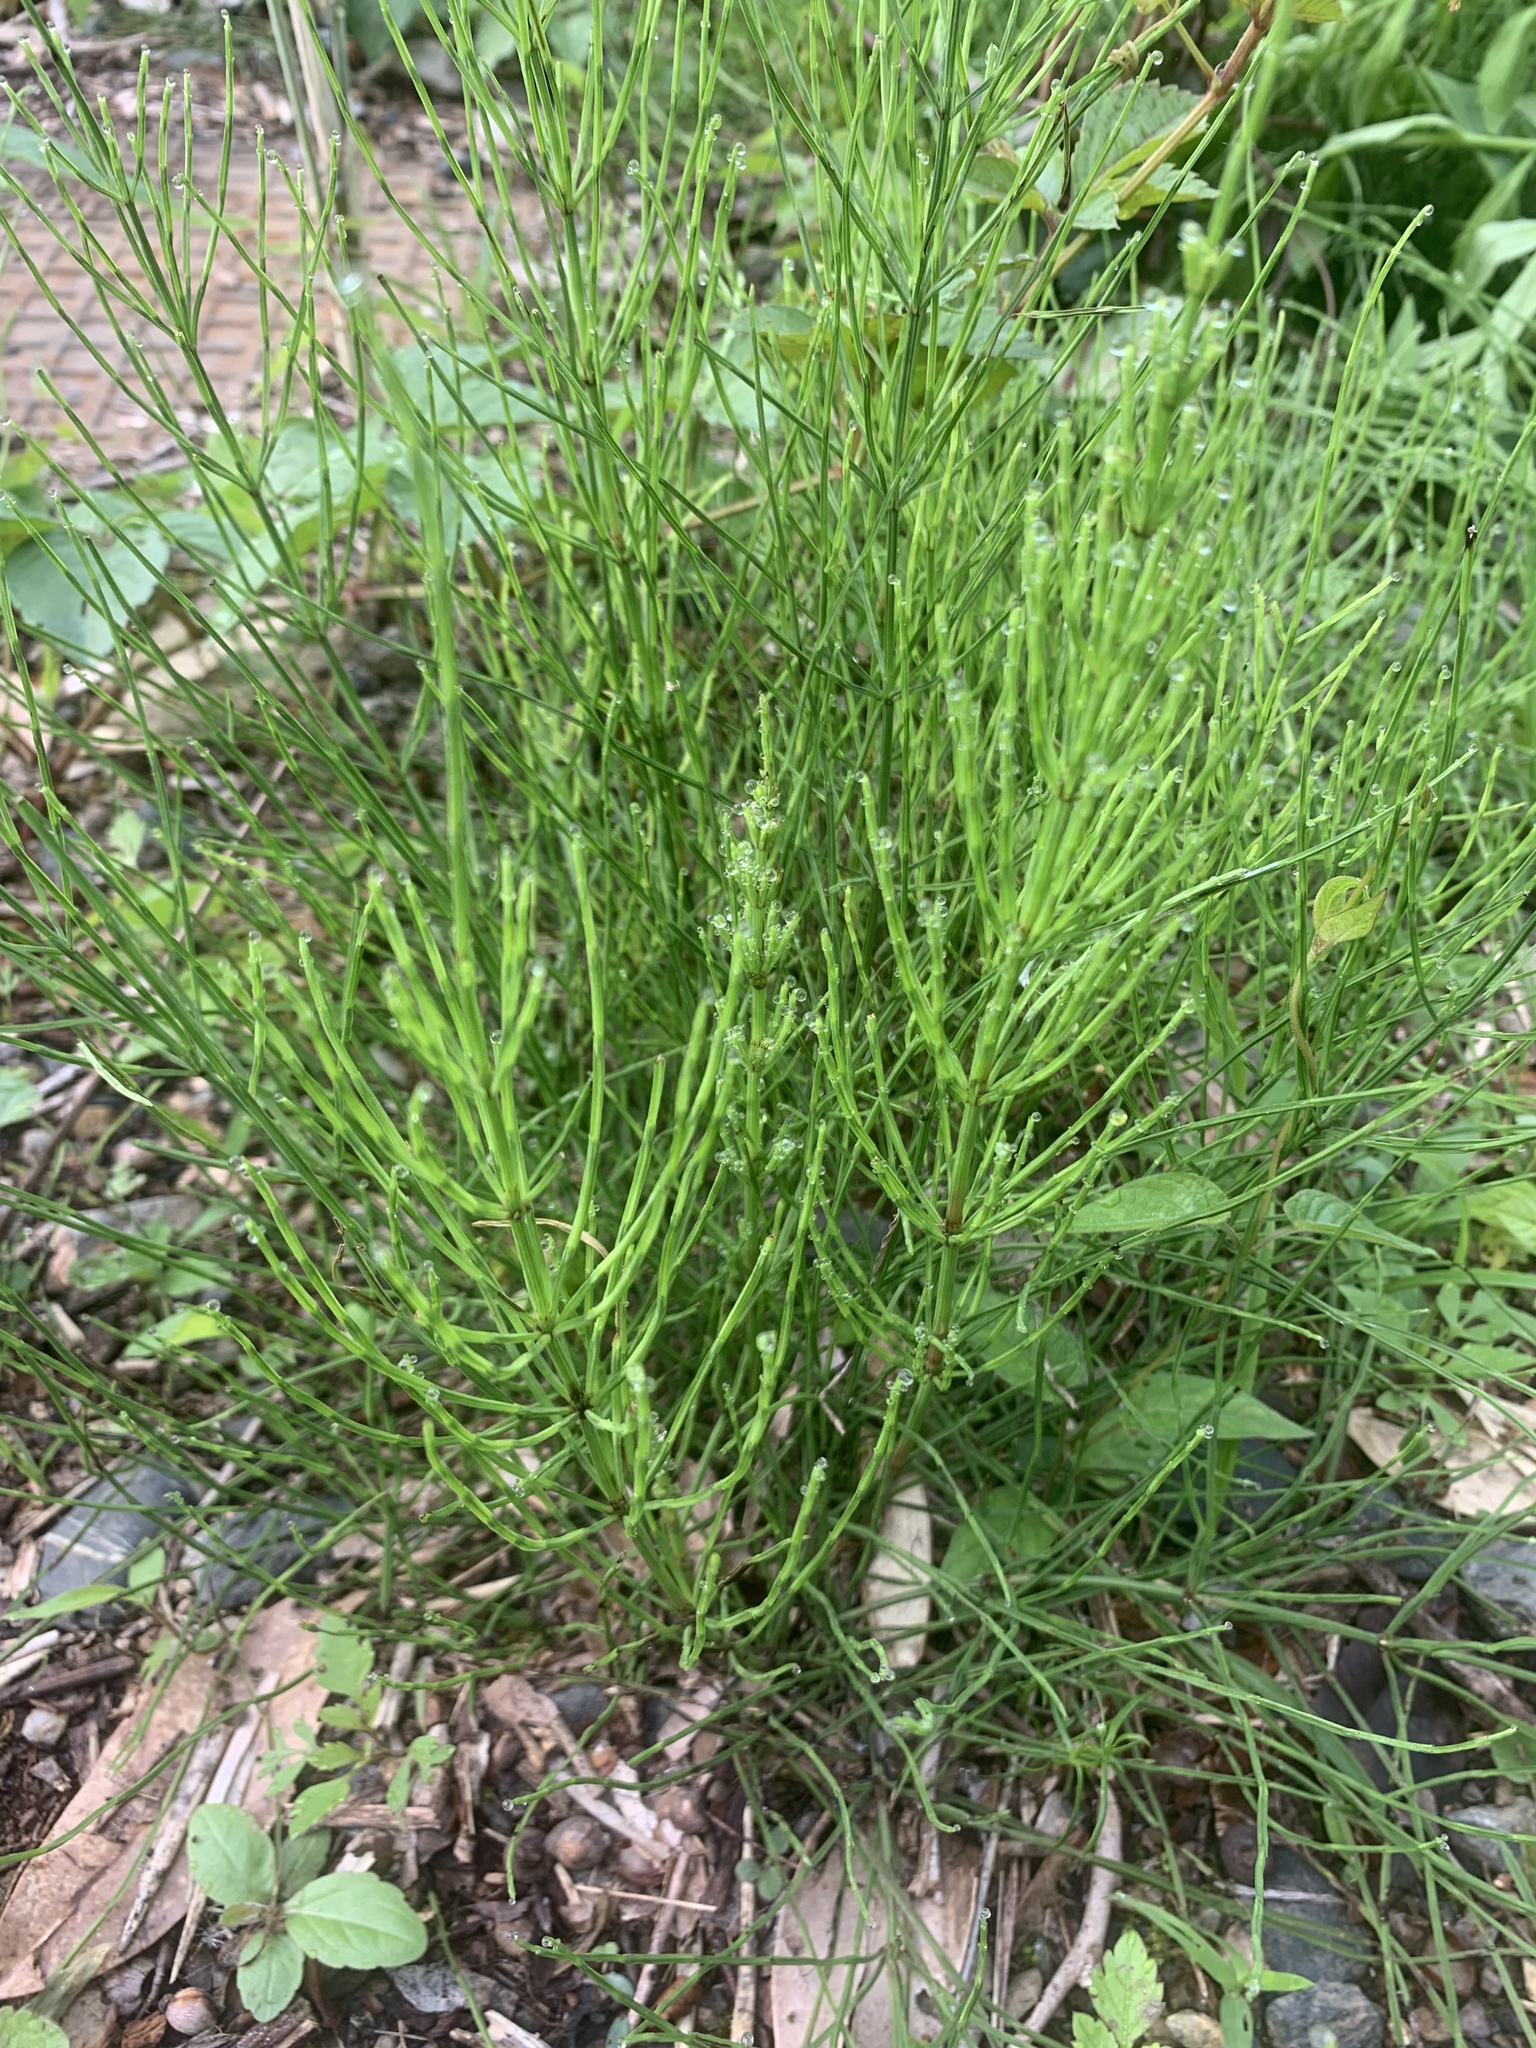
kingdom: Plantae
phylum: Tracheophyta
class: Polypodiopsida
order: Equisetales
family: Equisetaceae
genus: Equisetum
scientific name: Equisetum arvense
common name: Field horsetail
